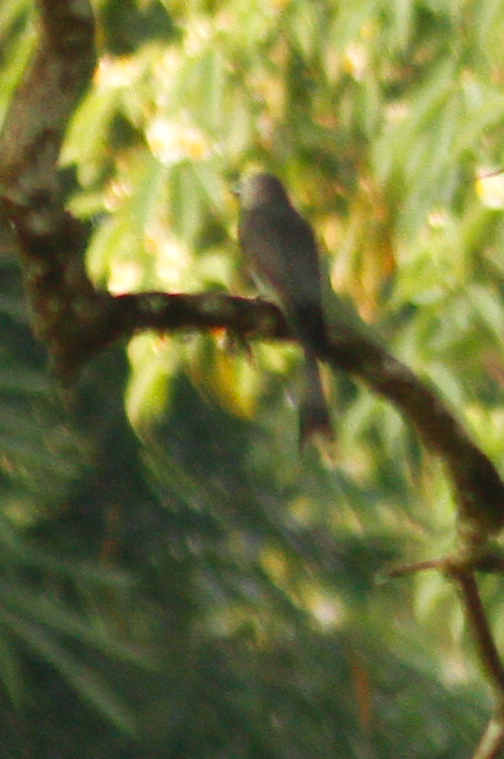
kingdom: Animalia
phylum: Chordata
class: Aves
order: Passeriformes
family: Dicruridae
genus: Dicrurus
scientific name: Dicrurus leucophaeus
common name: Ashy drongo
